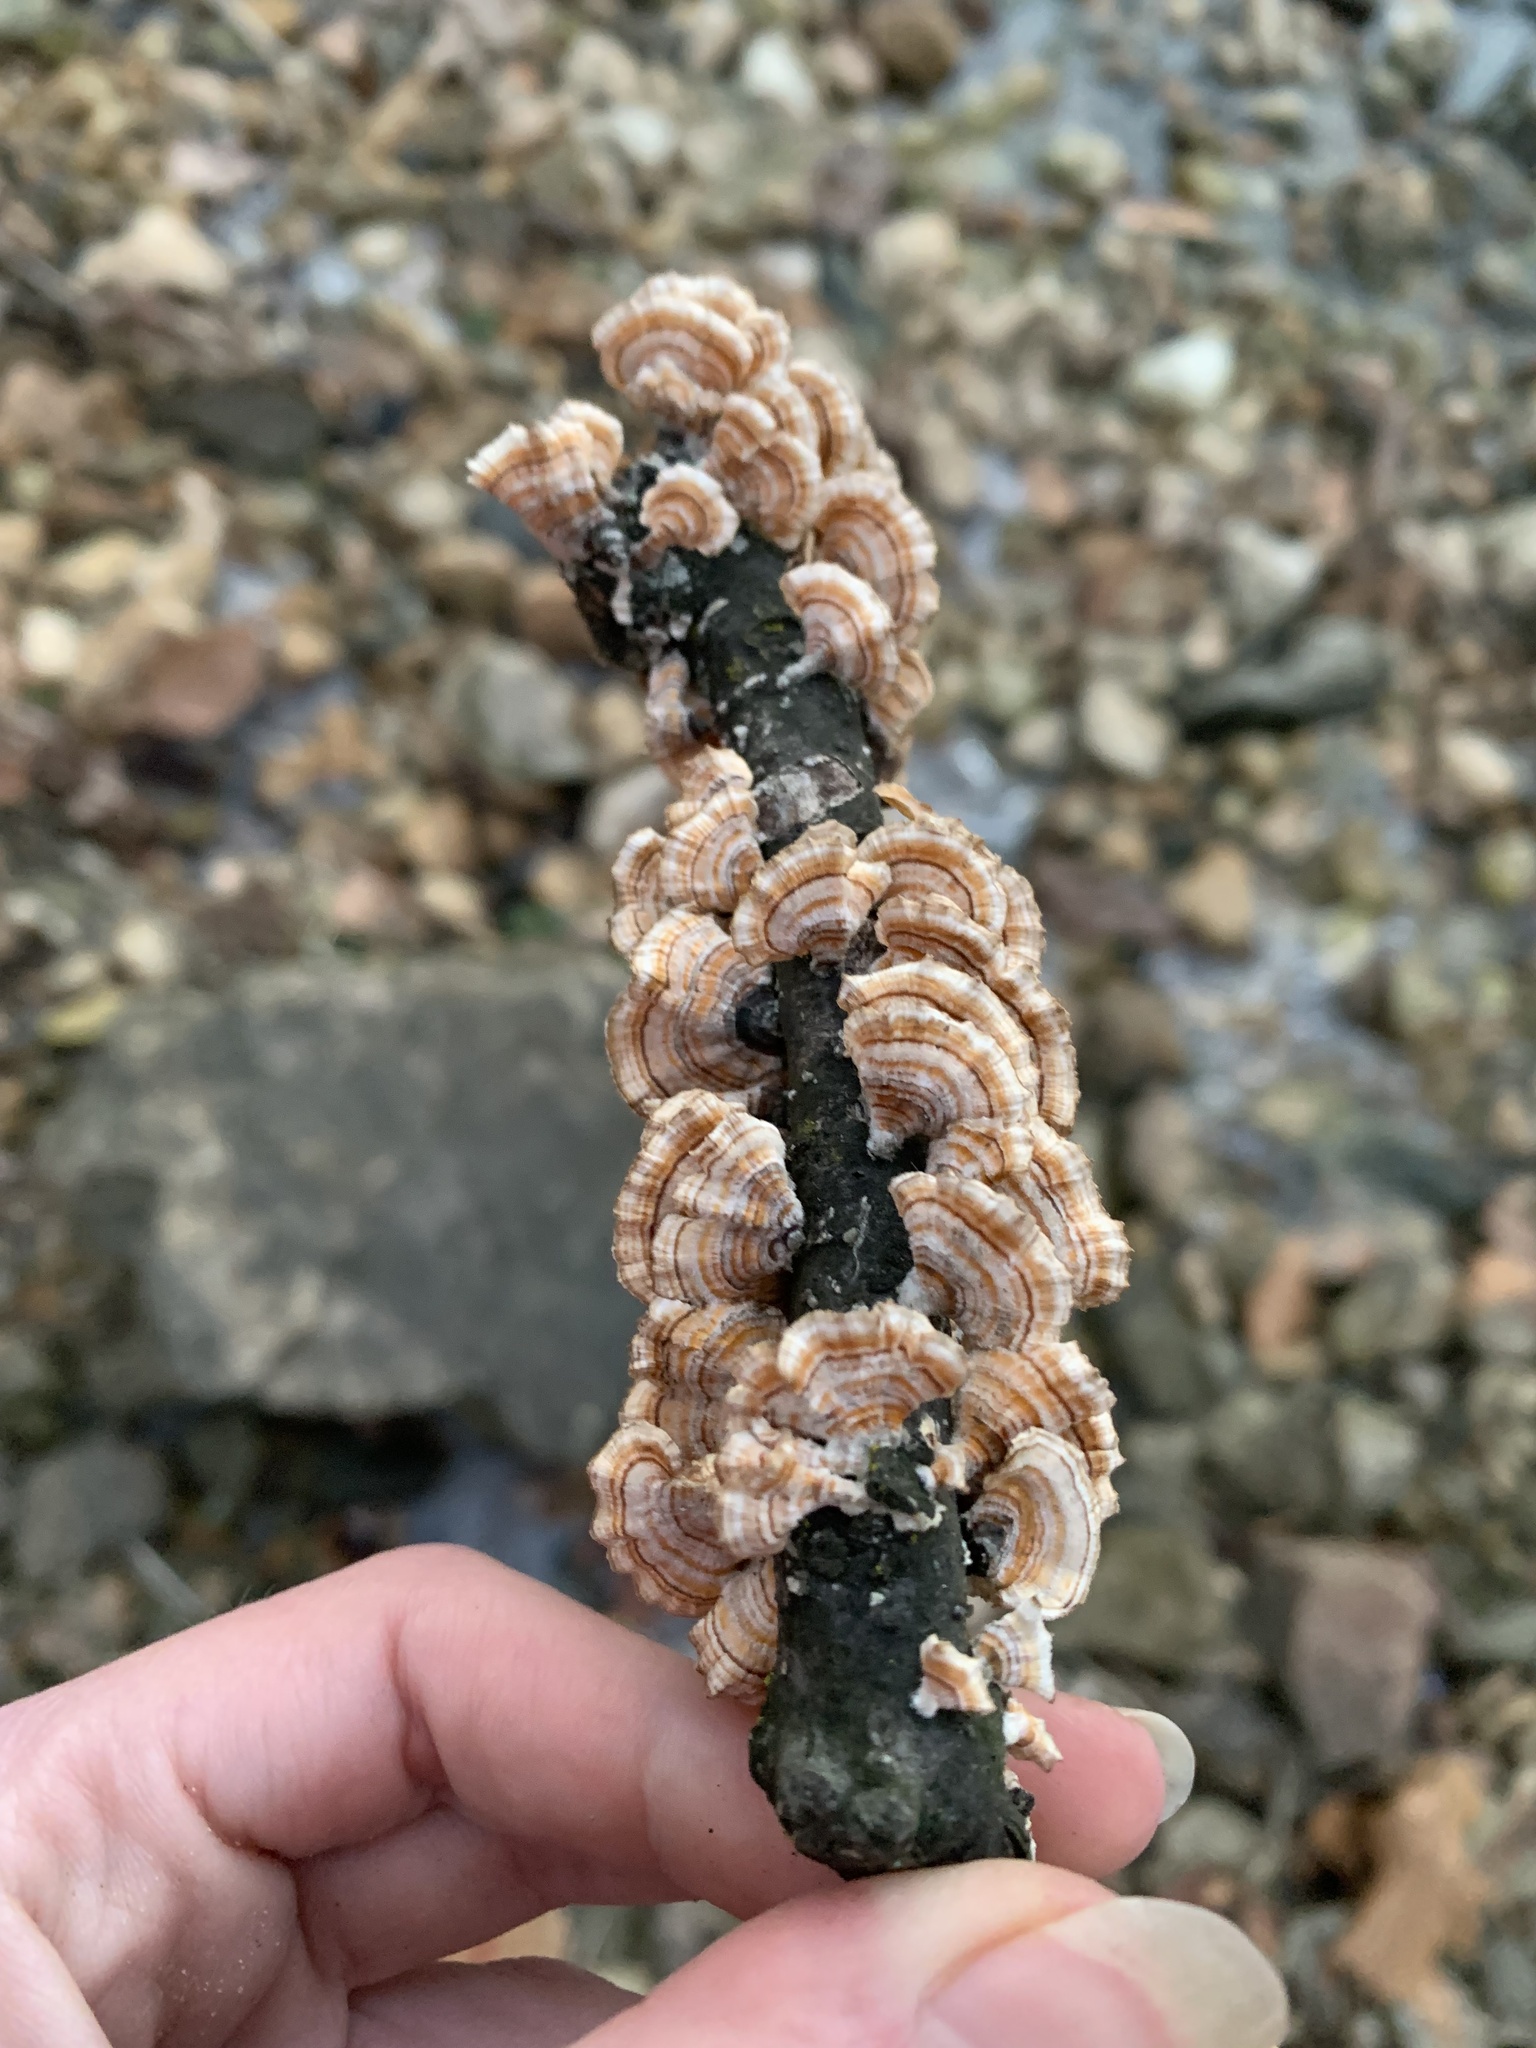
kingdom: Fungi
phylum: Basidiomycota
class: Agaricomycetes
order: Russulales
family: Stereaceae
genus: Stereum
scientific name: Stereum complicatum
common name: Crowded parchment
